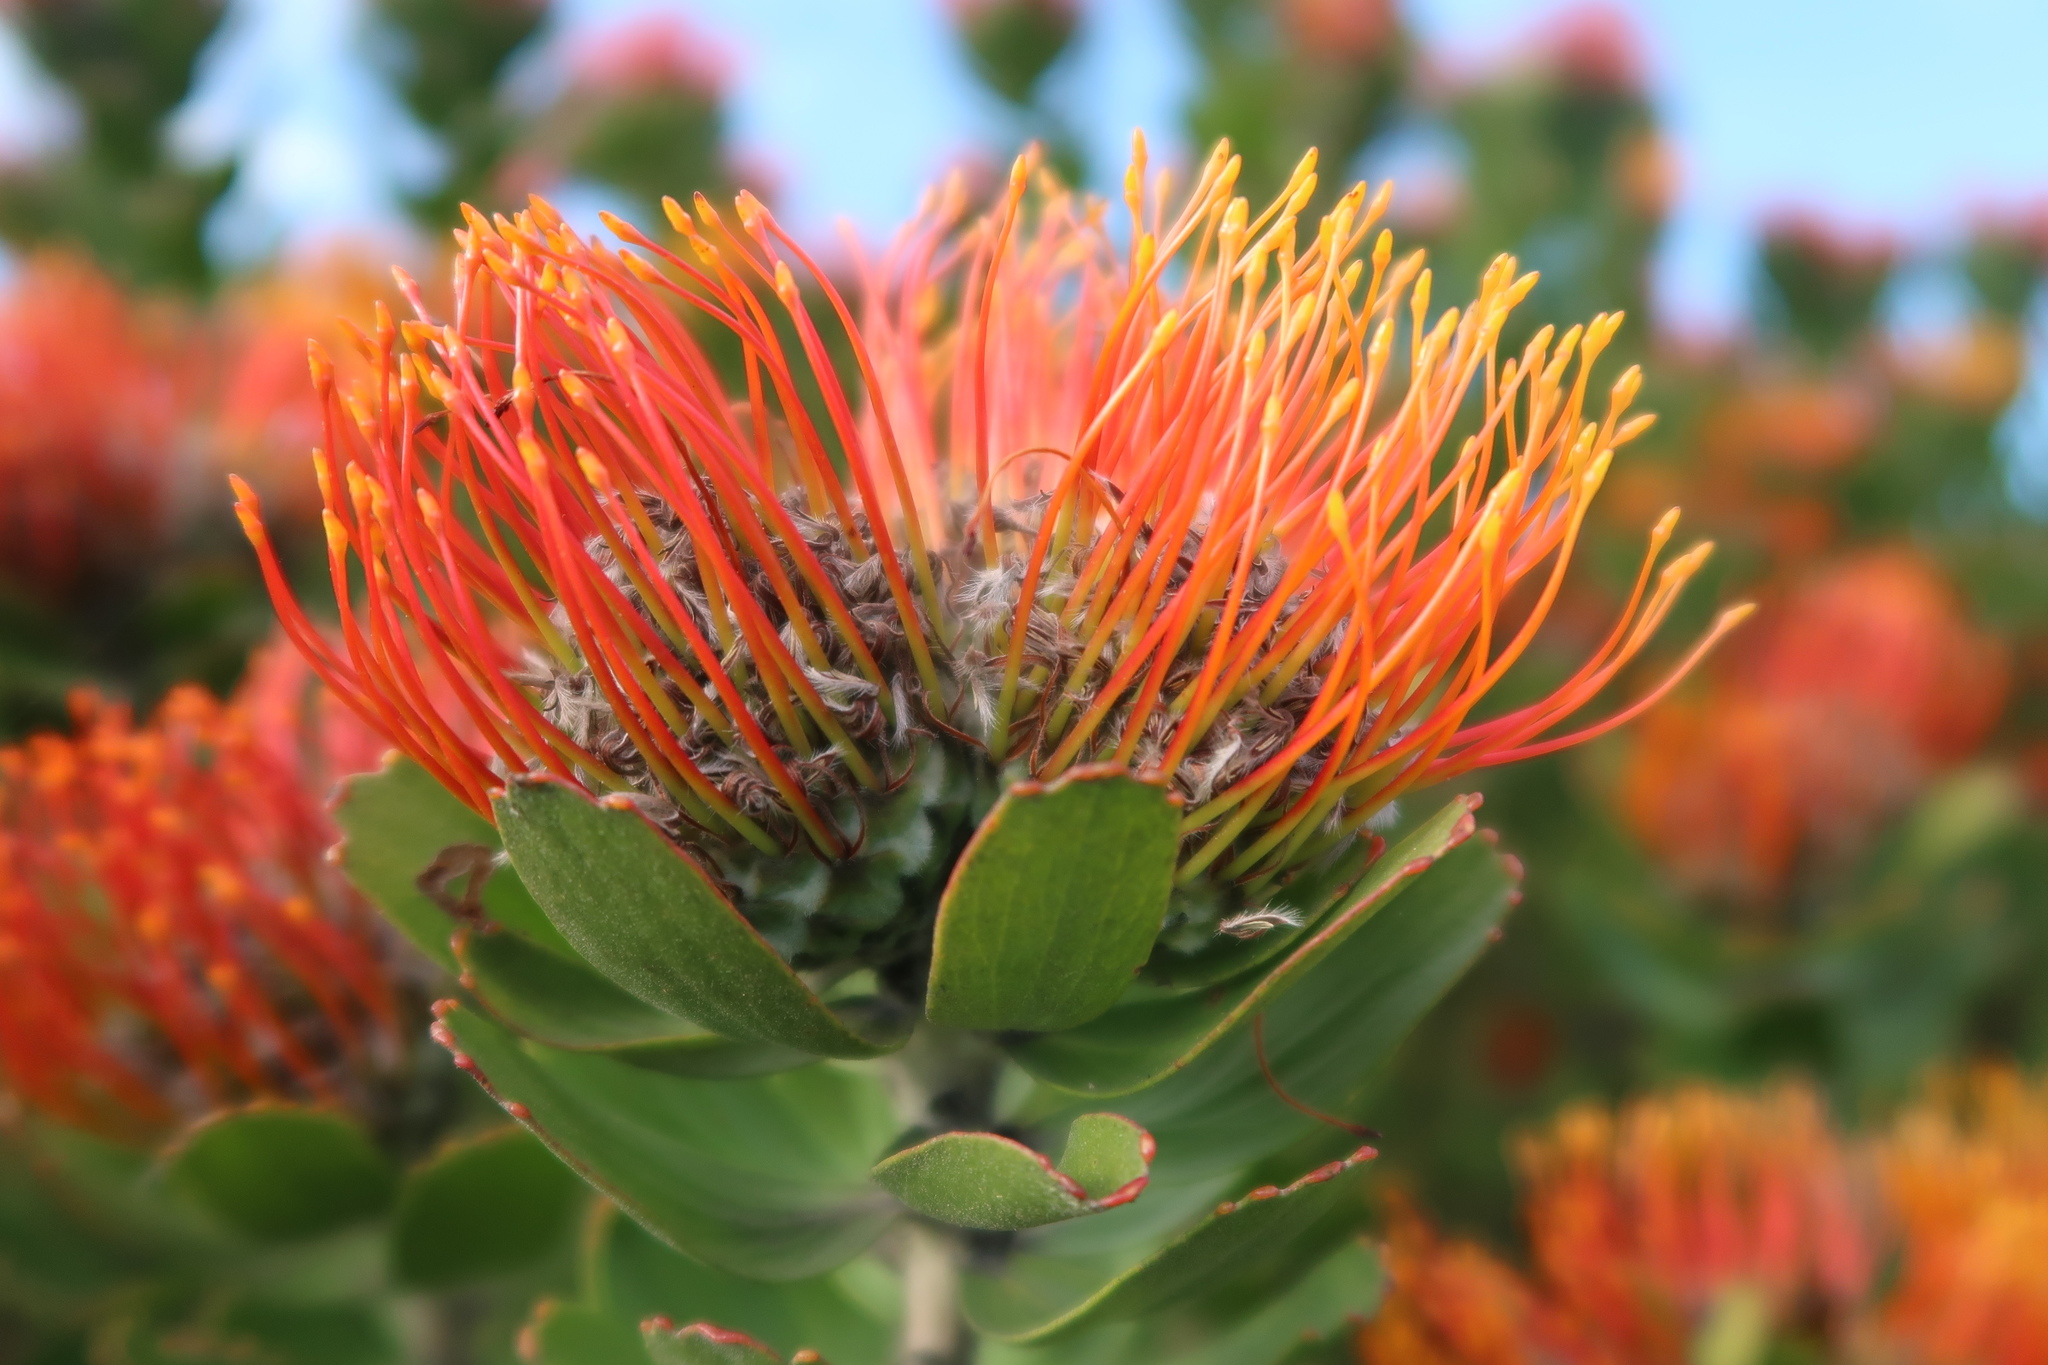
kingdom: Plantae
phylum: Tracheophyta
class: Magnoliopsida
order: Proteales
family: Proteaceae
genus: Leucospermum
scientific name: Leucospermum praecox
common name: Mossel bay pincushion
